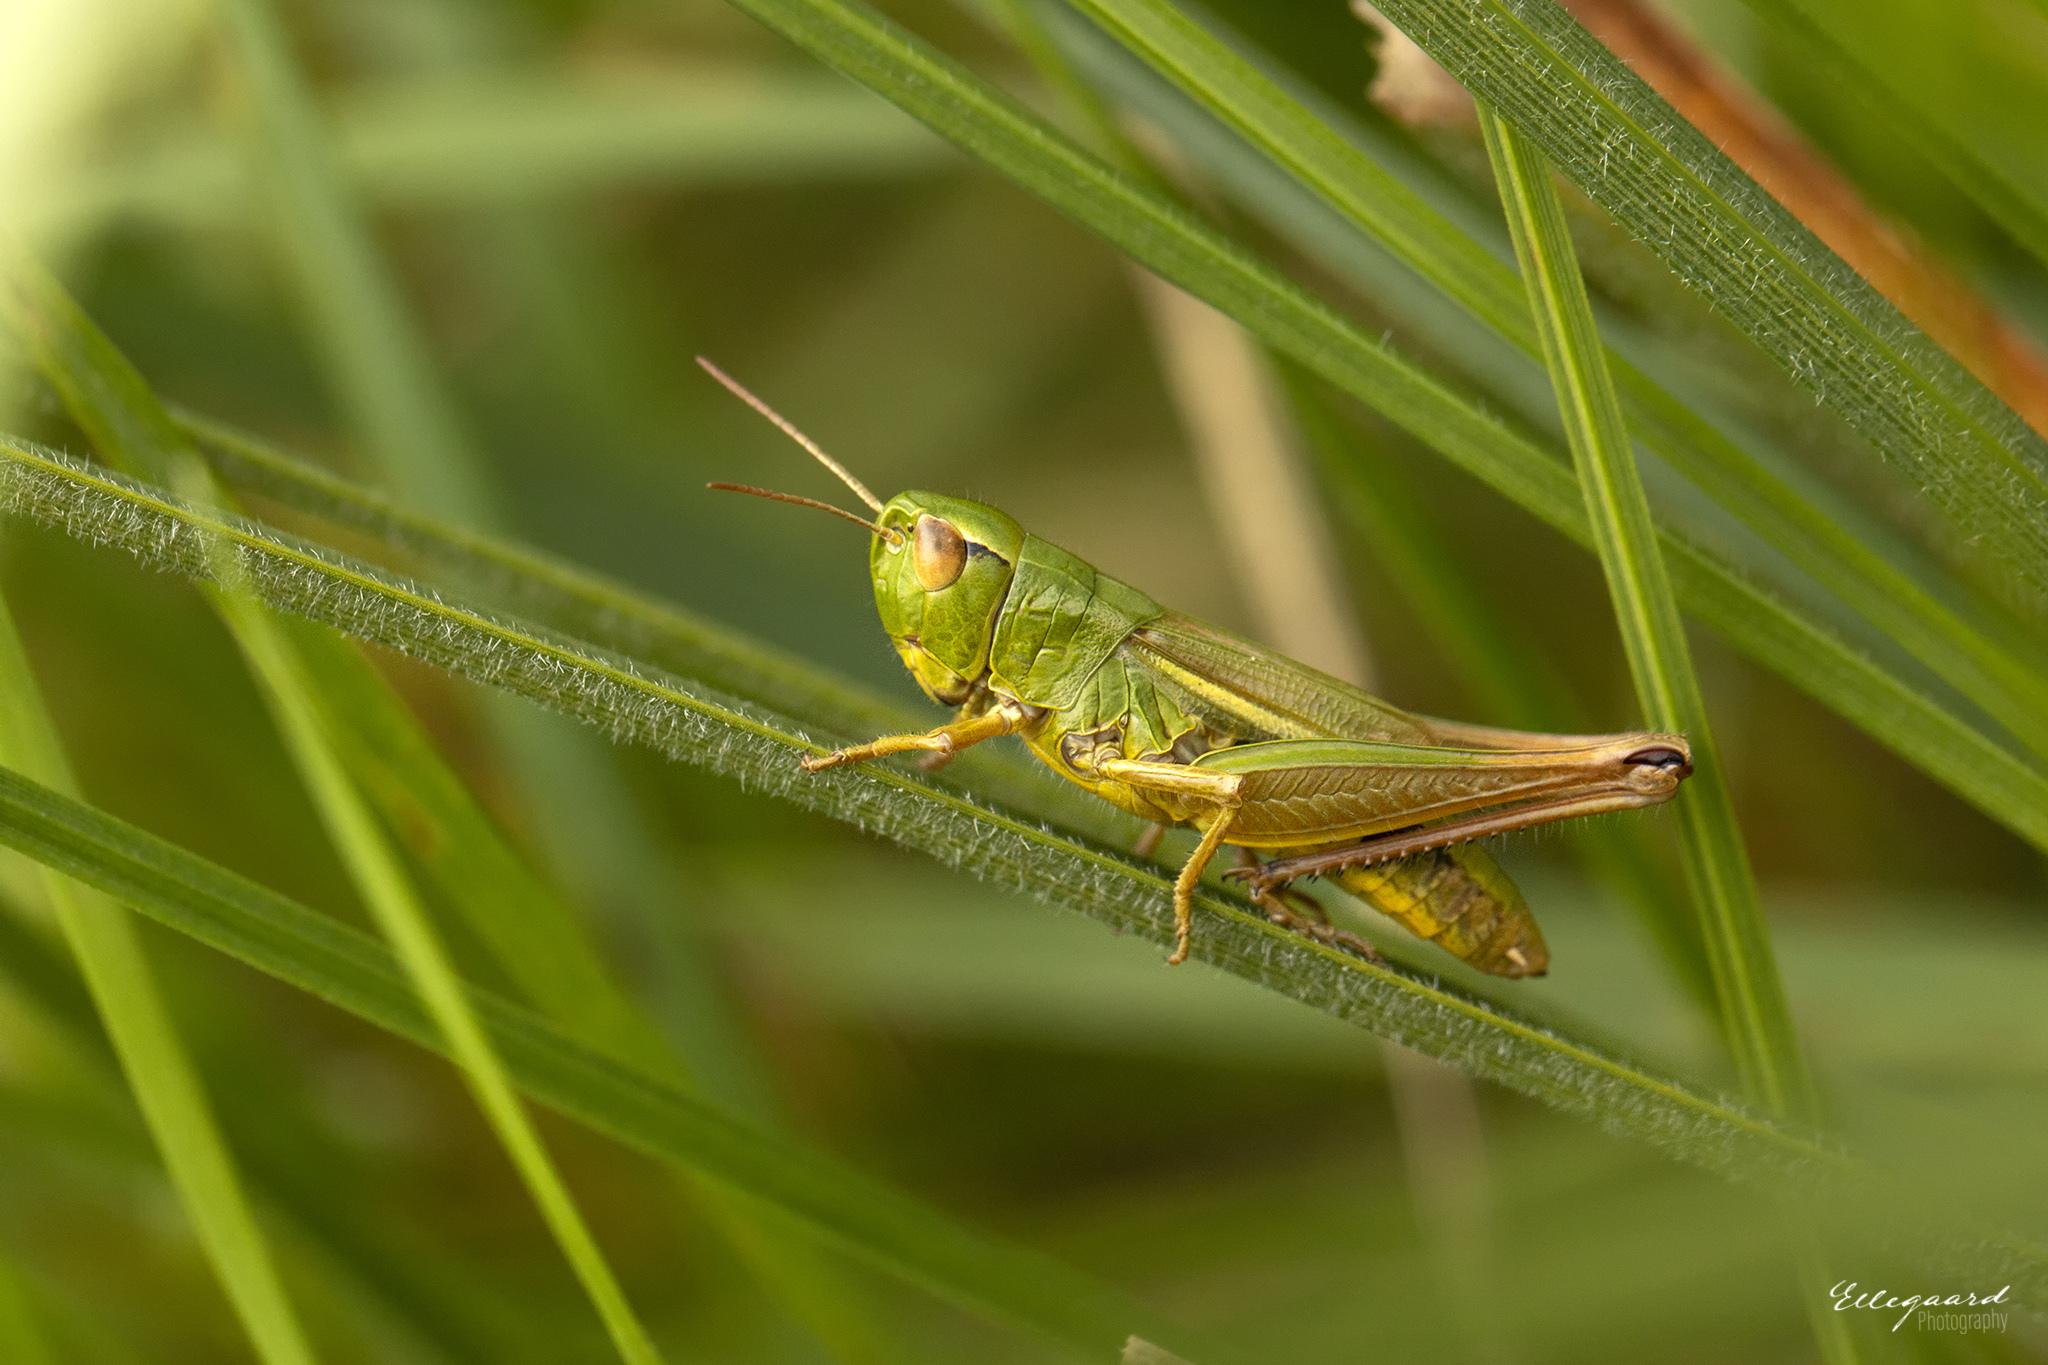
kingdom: Animalia
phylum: Arthropoda
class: Insecta
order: Orthoptera
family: Acrididae
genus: Pseudochorthippus
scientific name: Pseudochorthippus parallelus
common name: Meadow grasshopper
